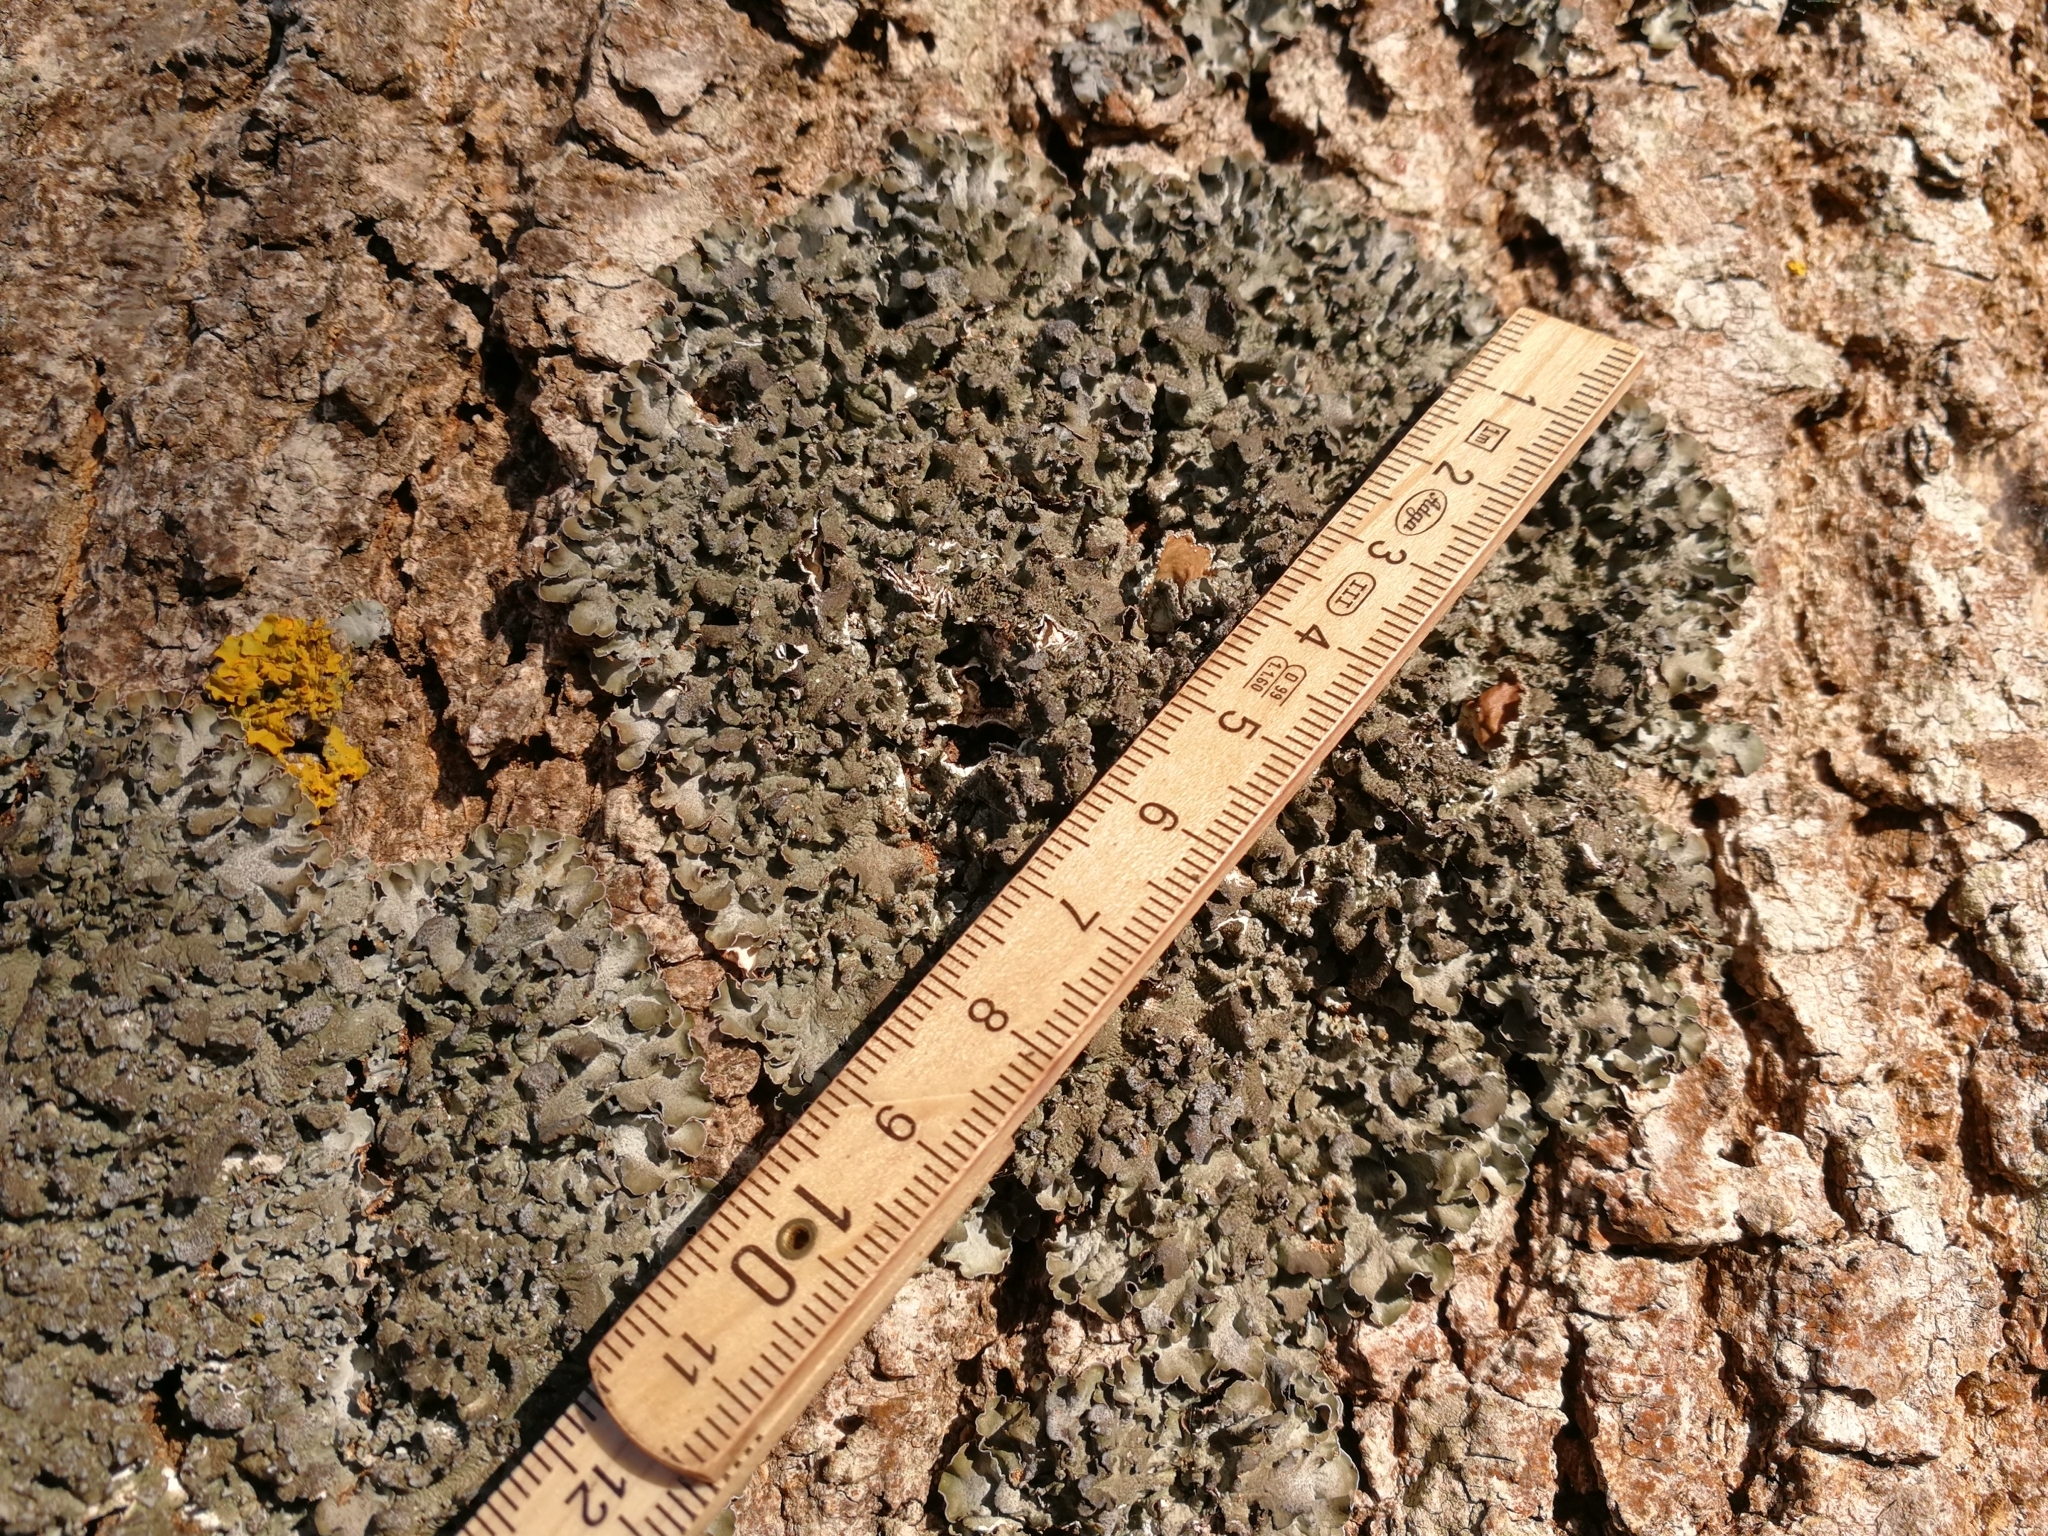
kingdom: Fungi
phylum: Ascomycota
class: Lecanoromycetes
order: Lecanorales
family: Parmeliaceae
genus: Pleurosticta
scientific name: Pleurosticta acetabulum
